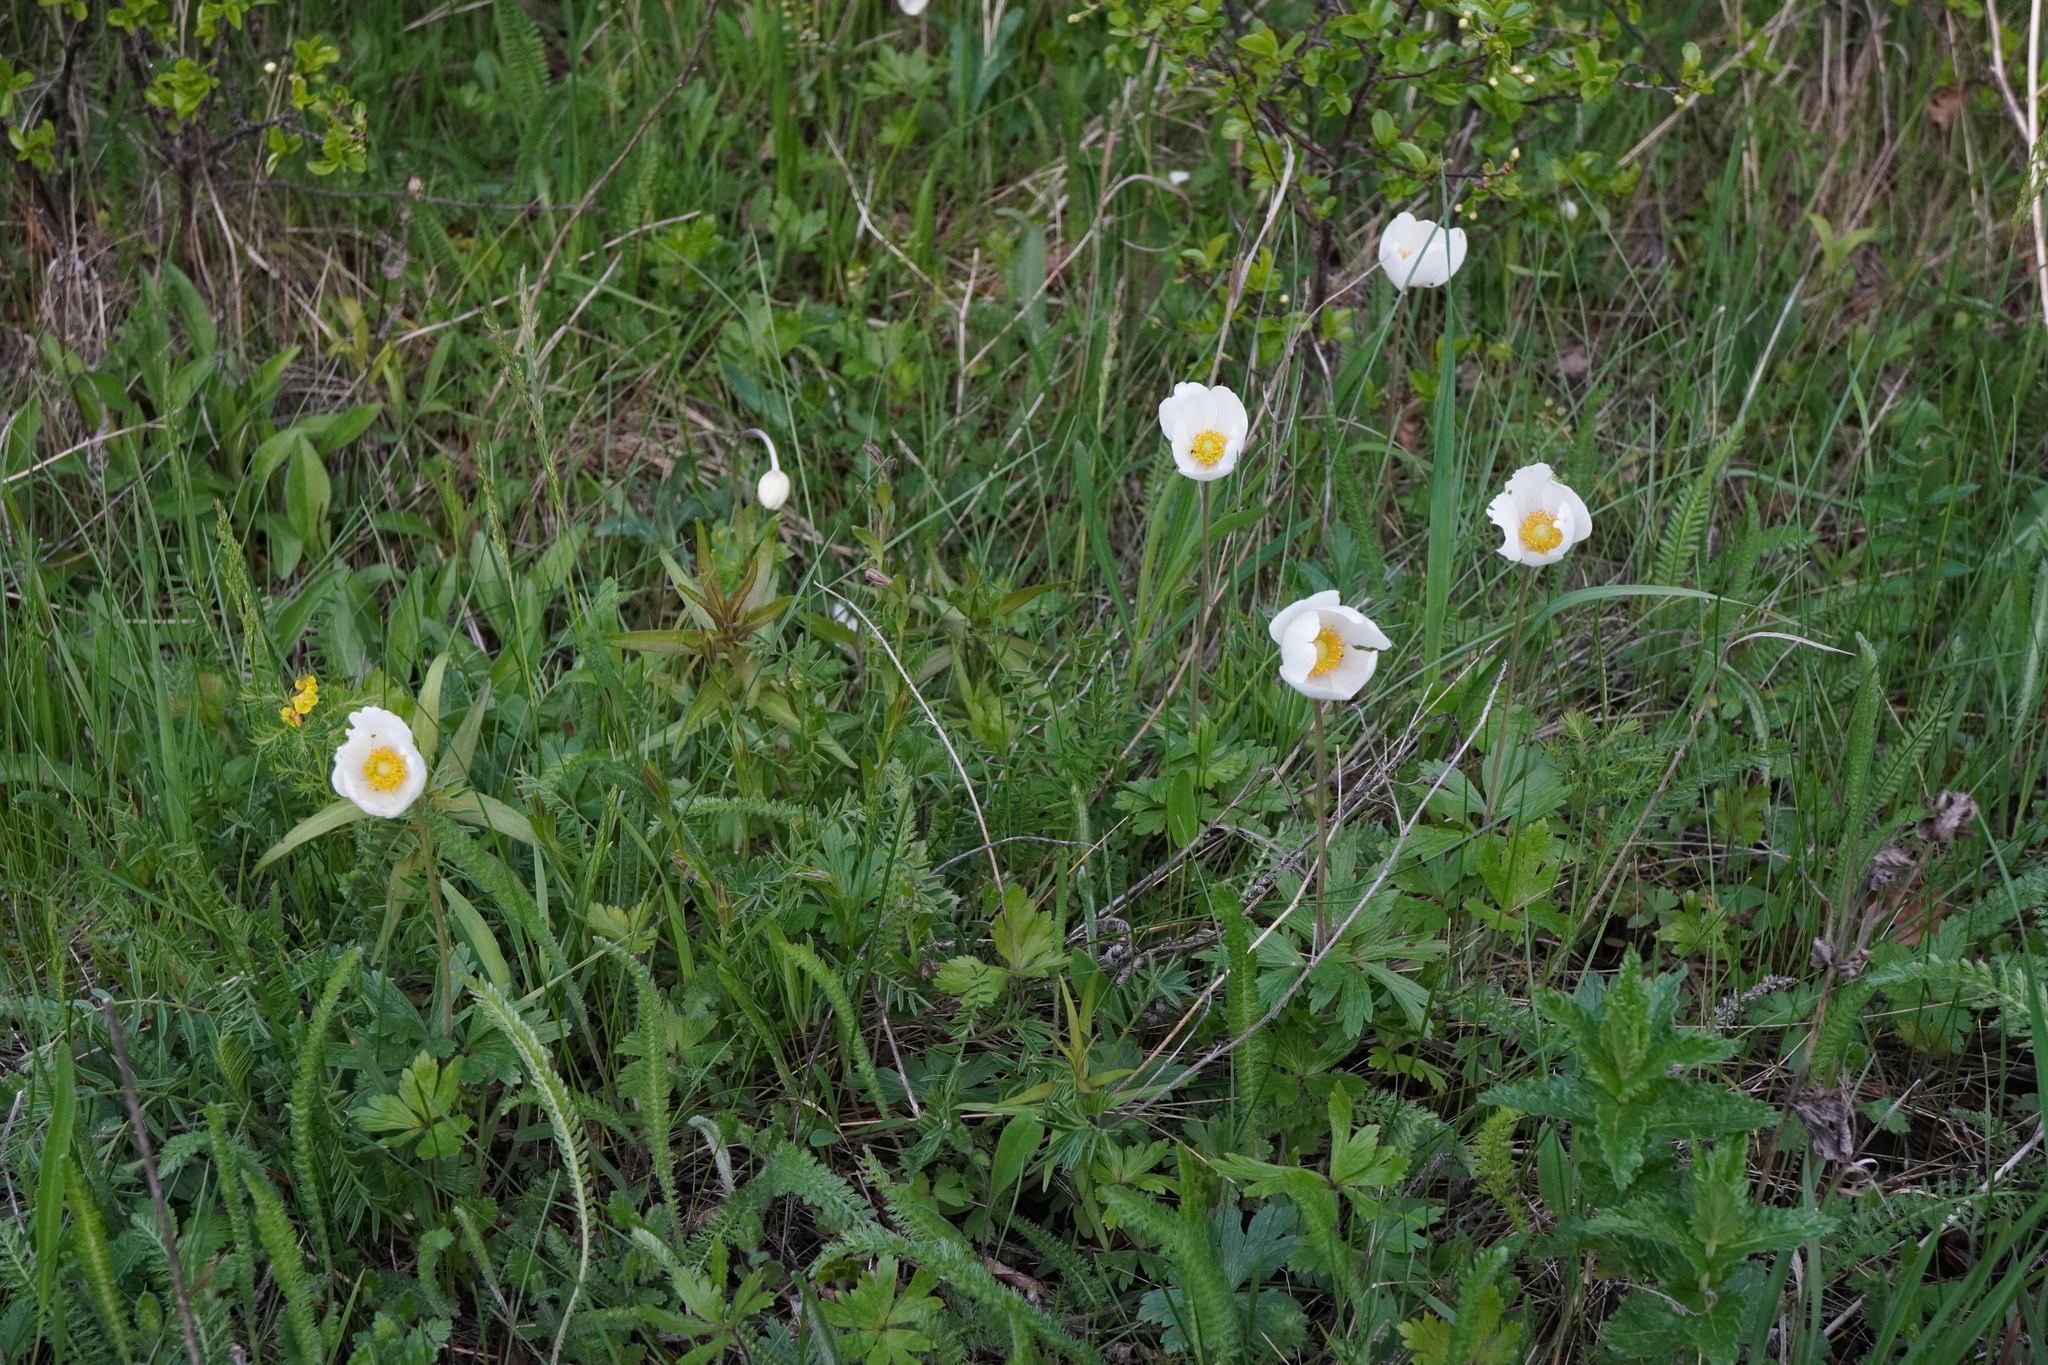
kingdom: Plantae
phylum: Tracheophyta
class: Magnoliopsida
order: Ranunculales
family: Ranunculaceae
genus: Anemone
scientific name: Anemone sylvestris
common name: Snowdrop anemone
